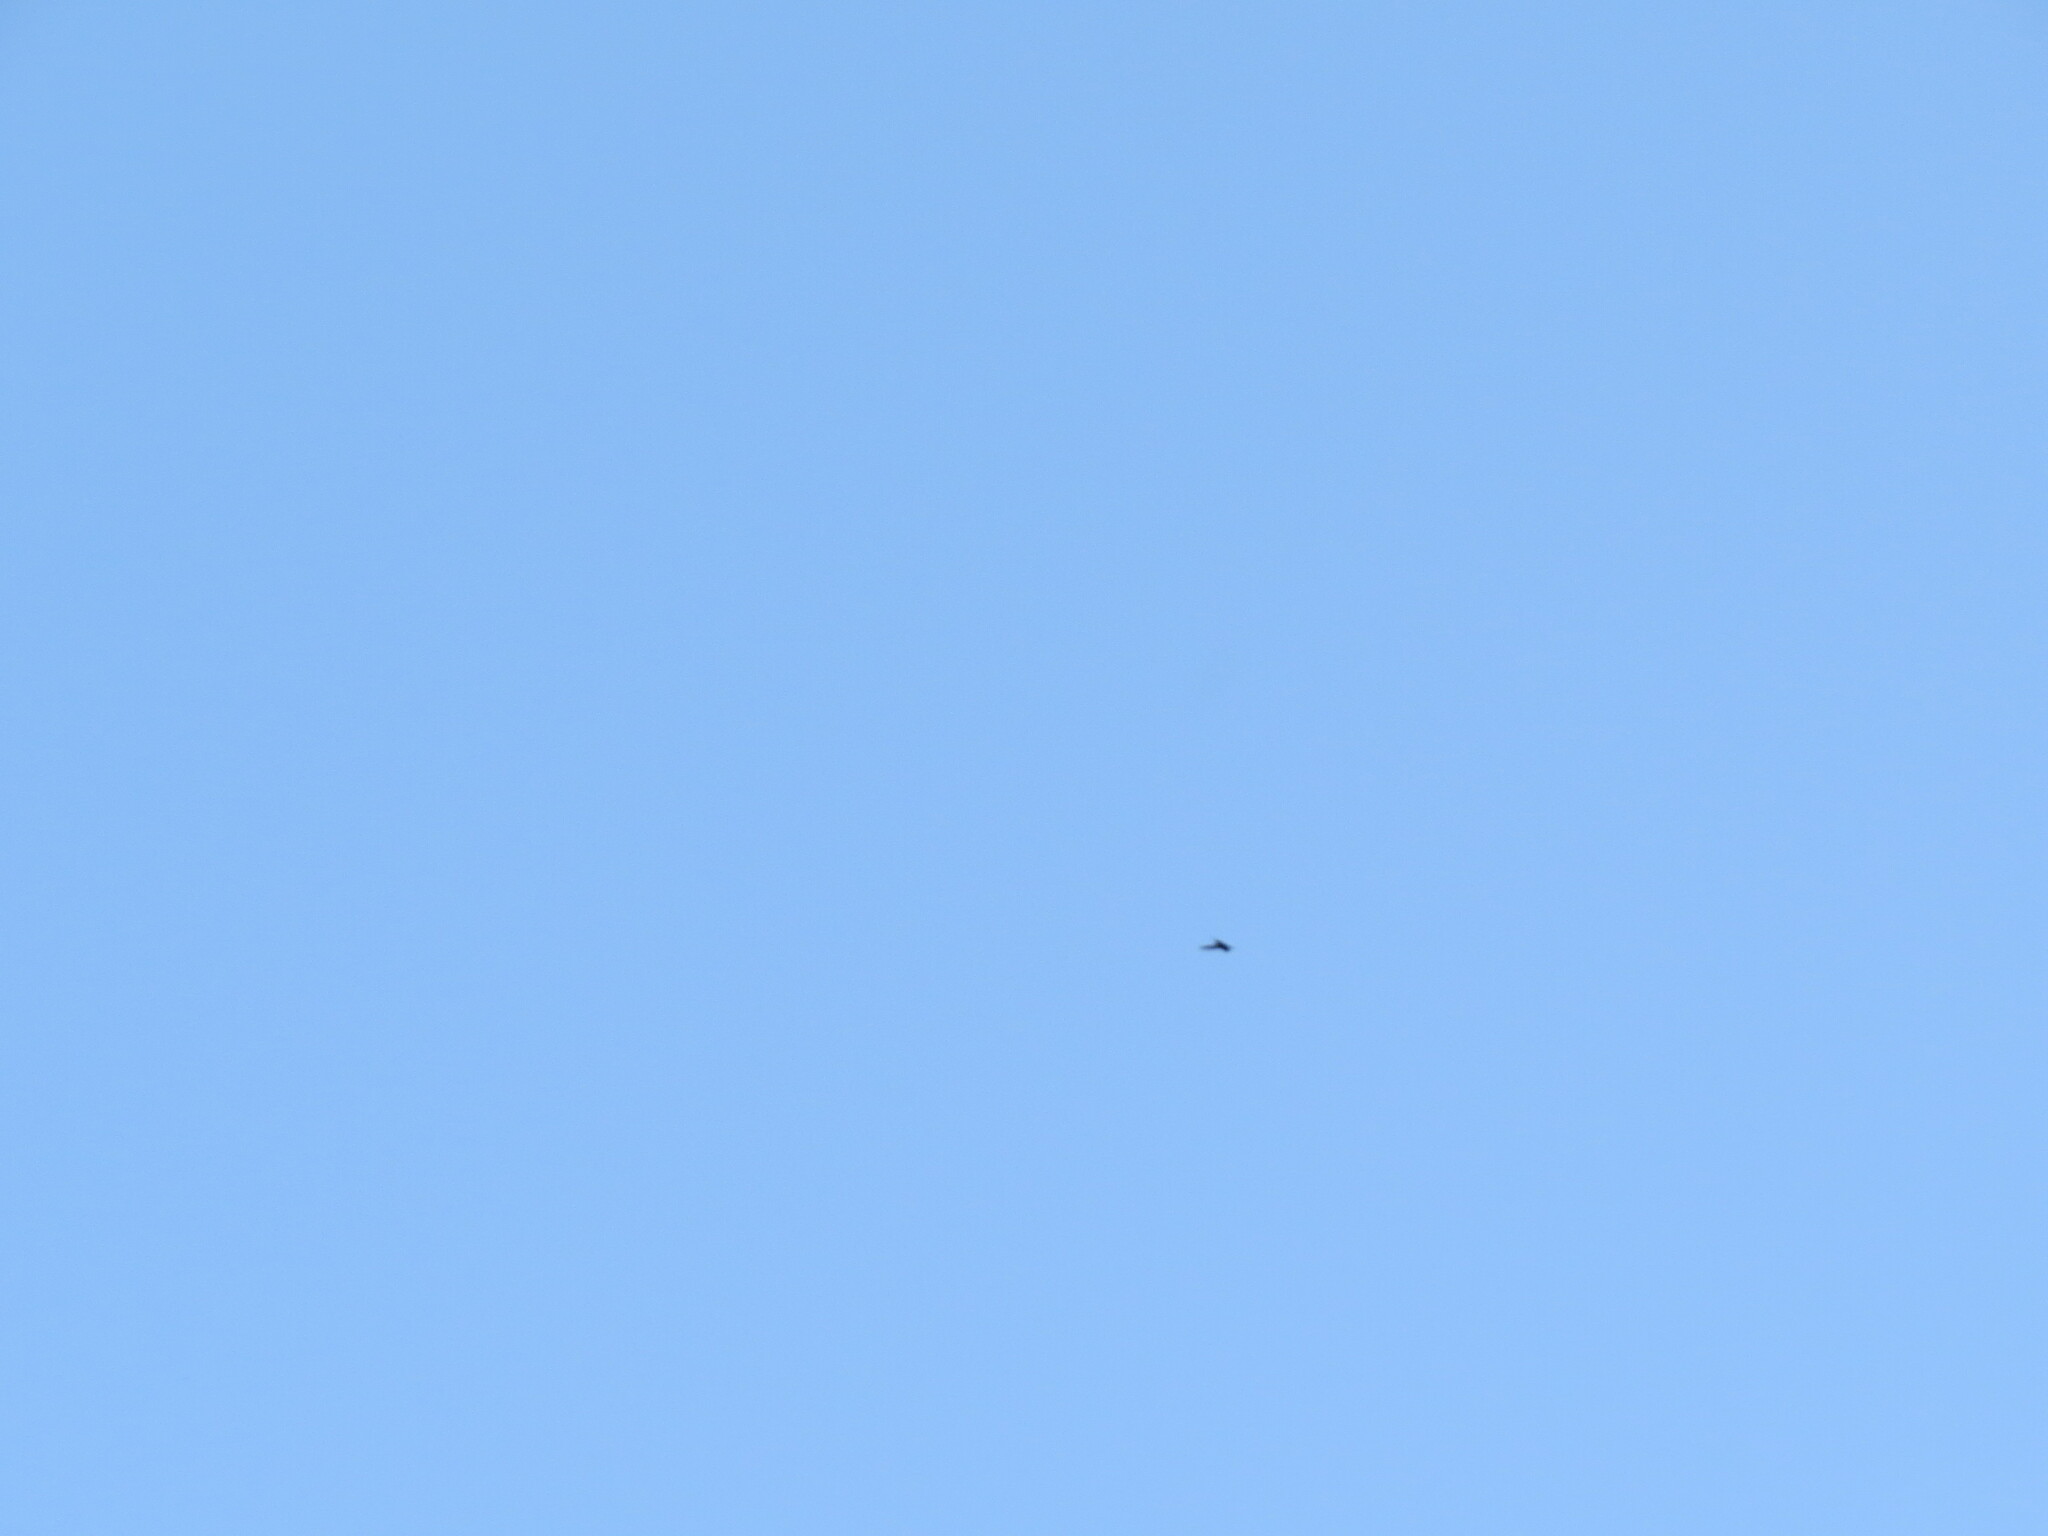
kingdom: Animalia
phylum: Chordata
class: Aves
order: Apodiformes
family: Apodidae
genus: Apus
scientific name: Apus apus
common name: Common swift
